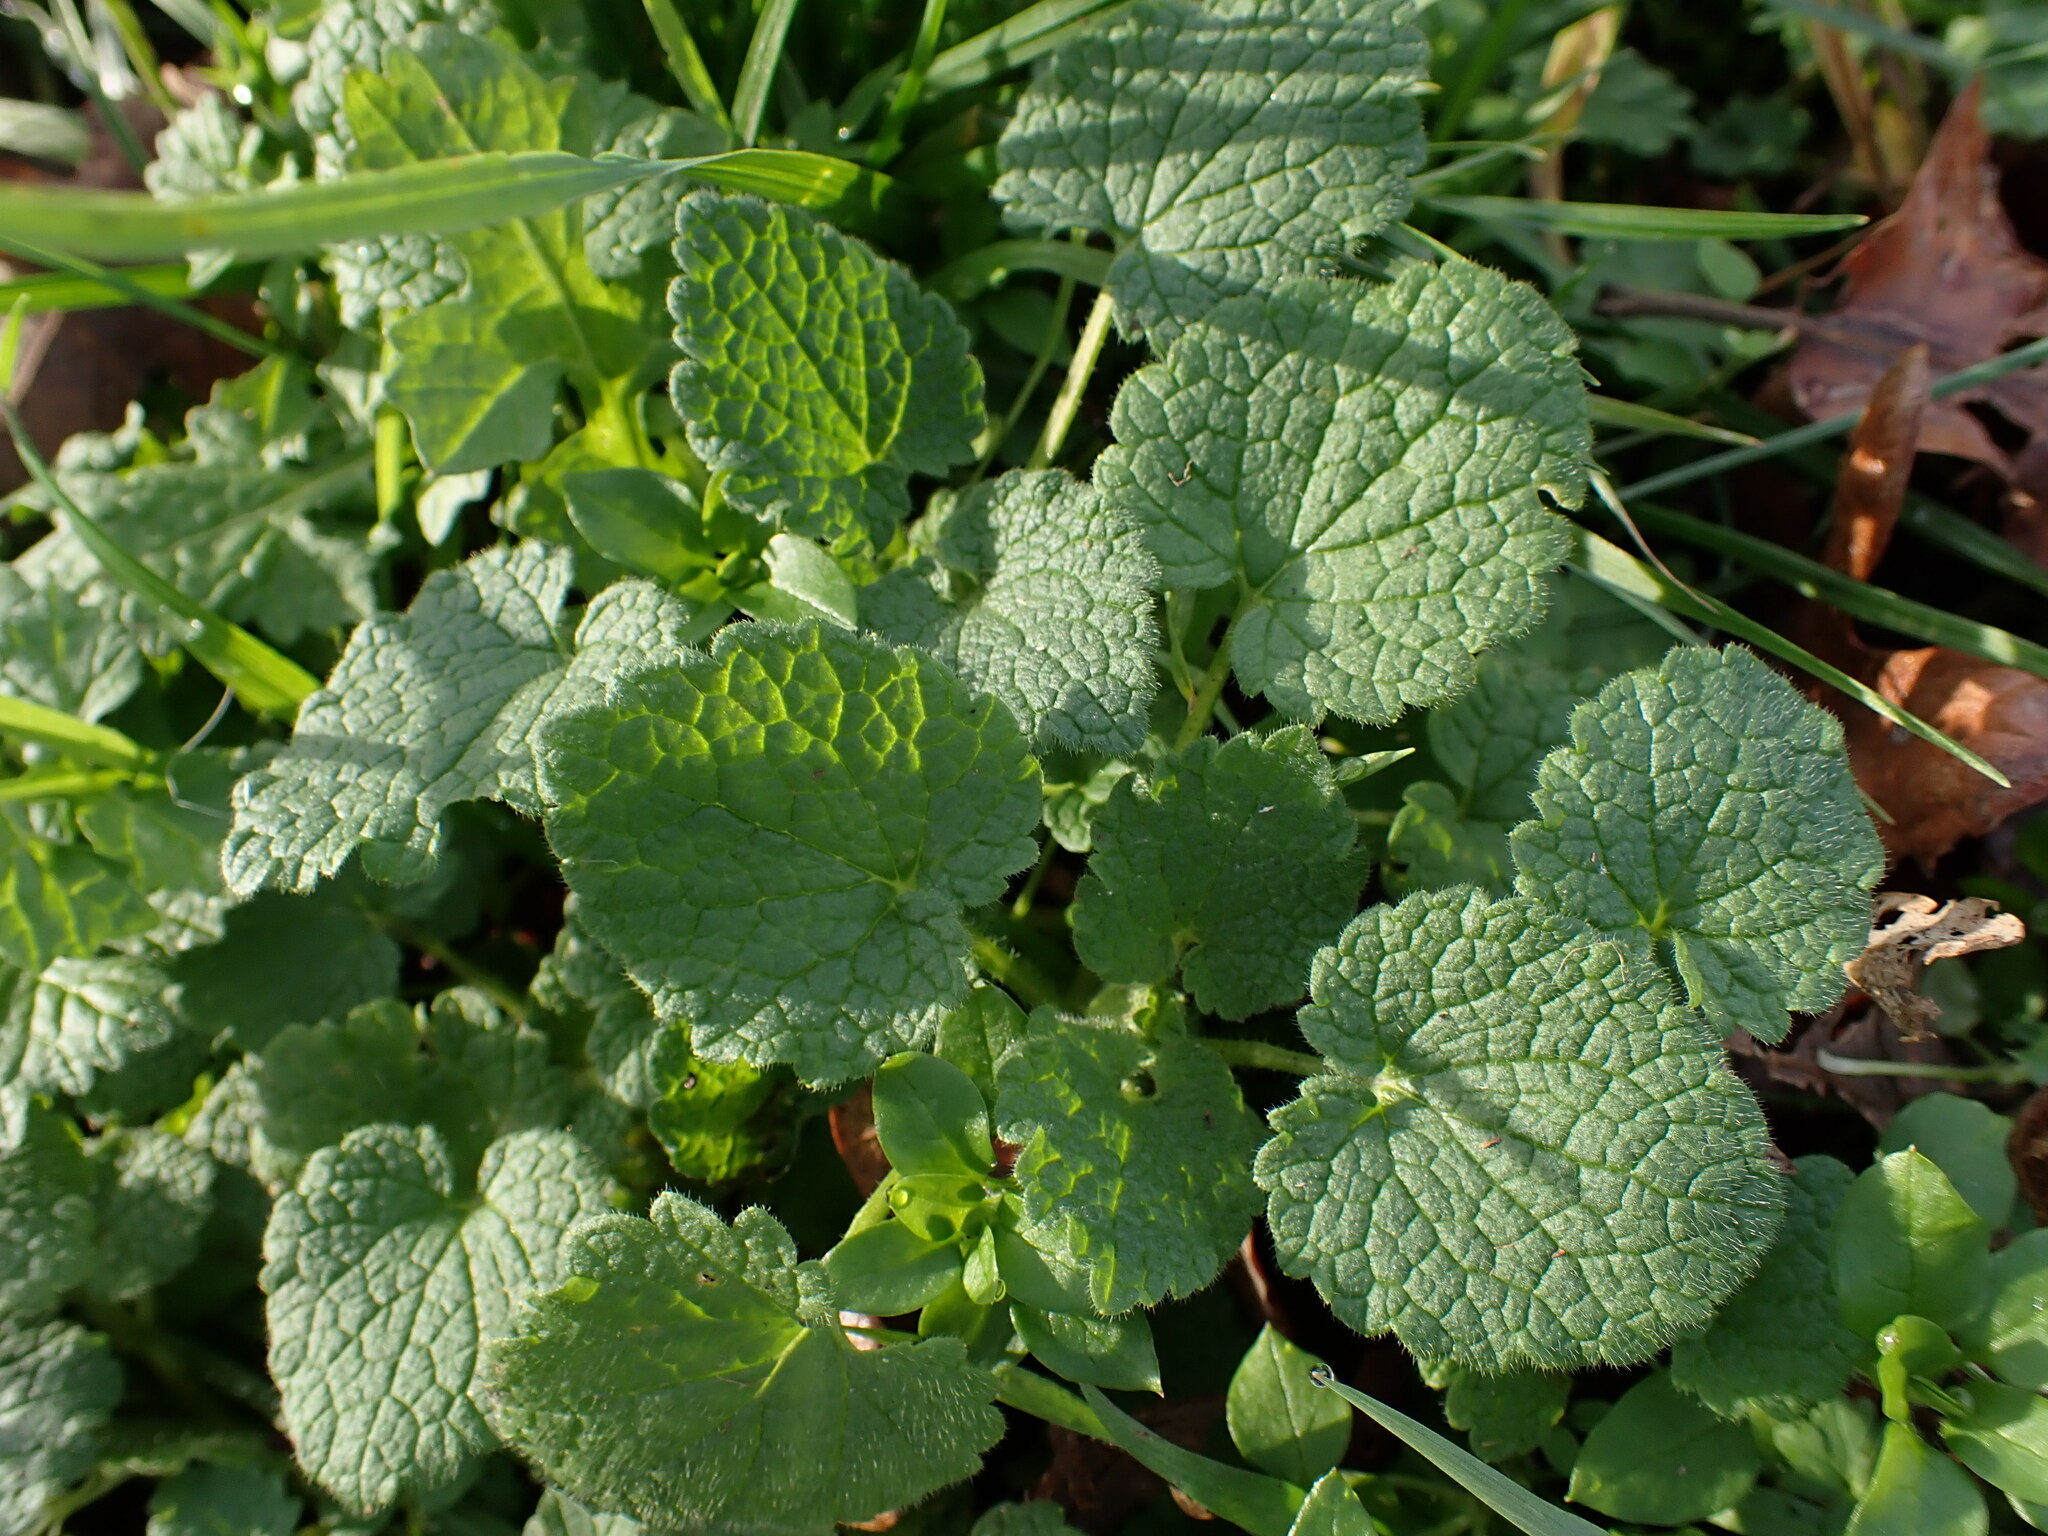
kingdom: Plantae
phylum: Tracheophyta
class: Magnoliopsida
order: Lamiales
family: Lamiaceae
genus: Lamium
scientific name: Lamium purpureum
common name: Red dead-nettle
